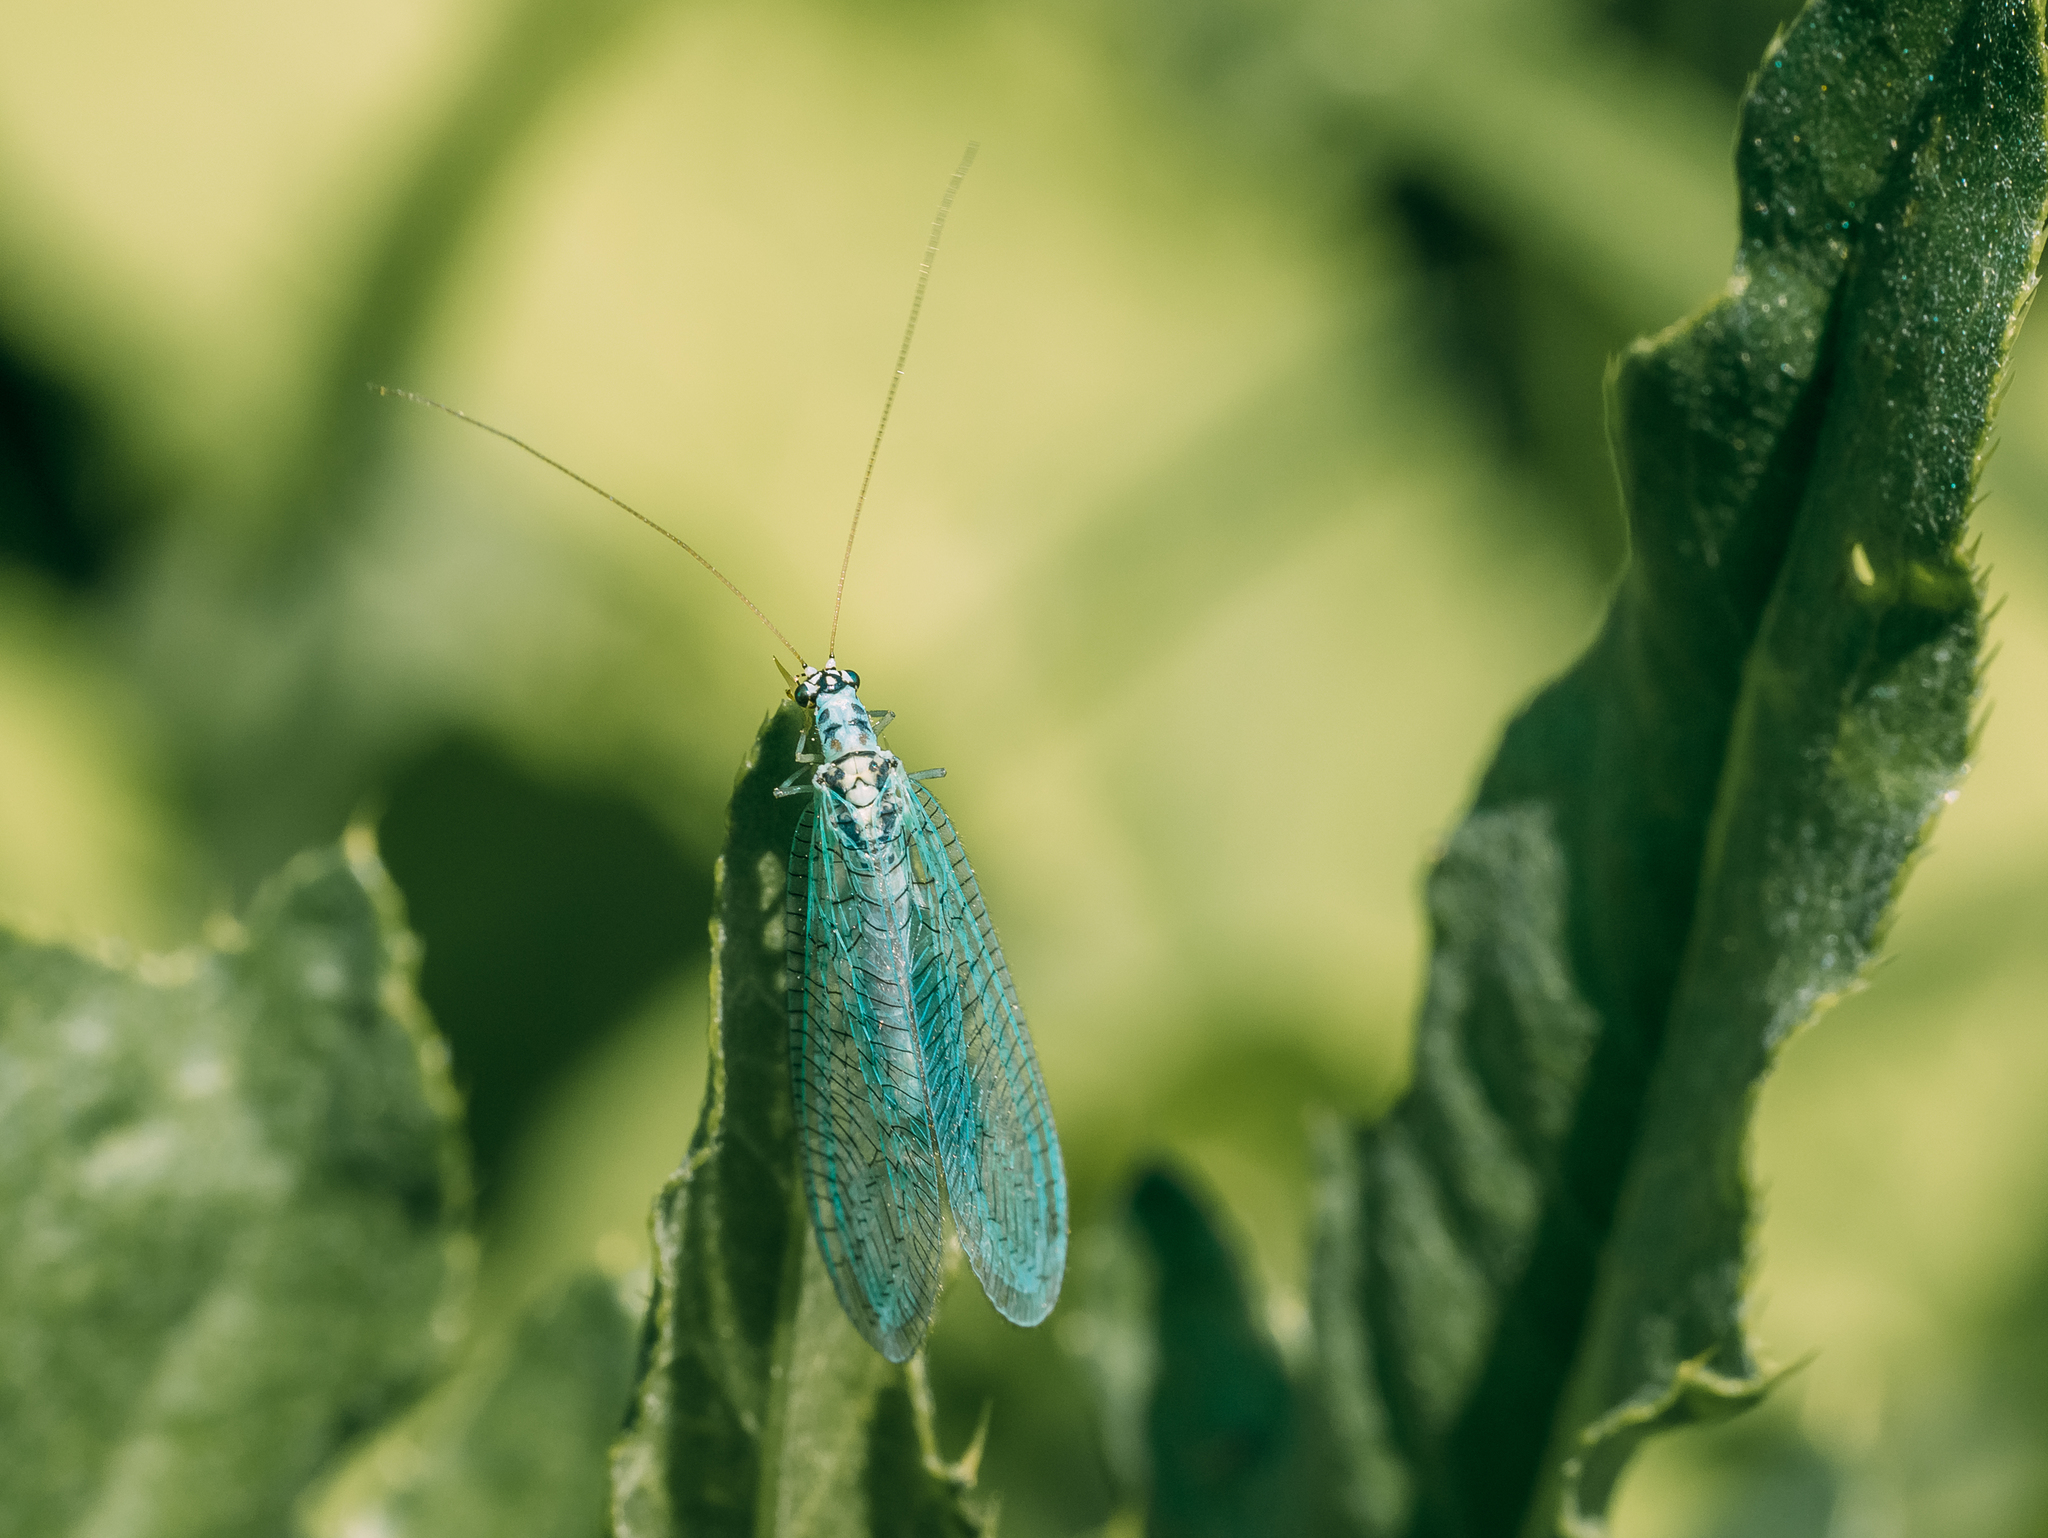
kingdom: Animalia
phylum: Arthropoda
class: Insecta
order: Neuroptera
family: Chrysopidae
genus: Chrysopa
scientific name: Chrysopa perla
